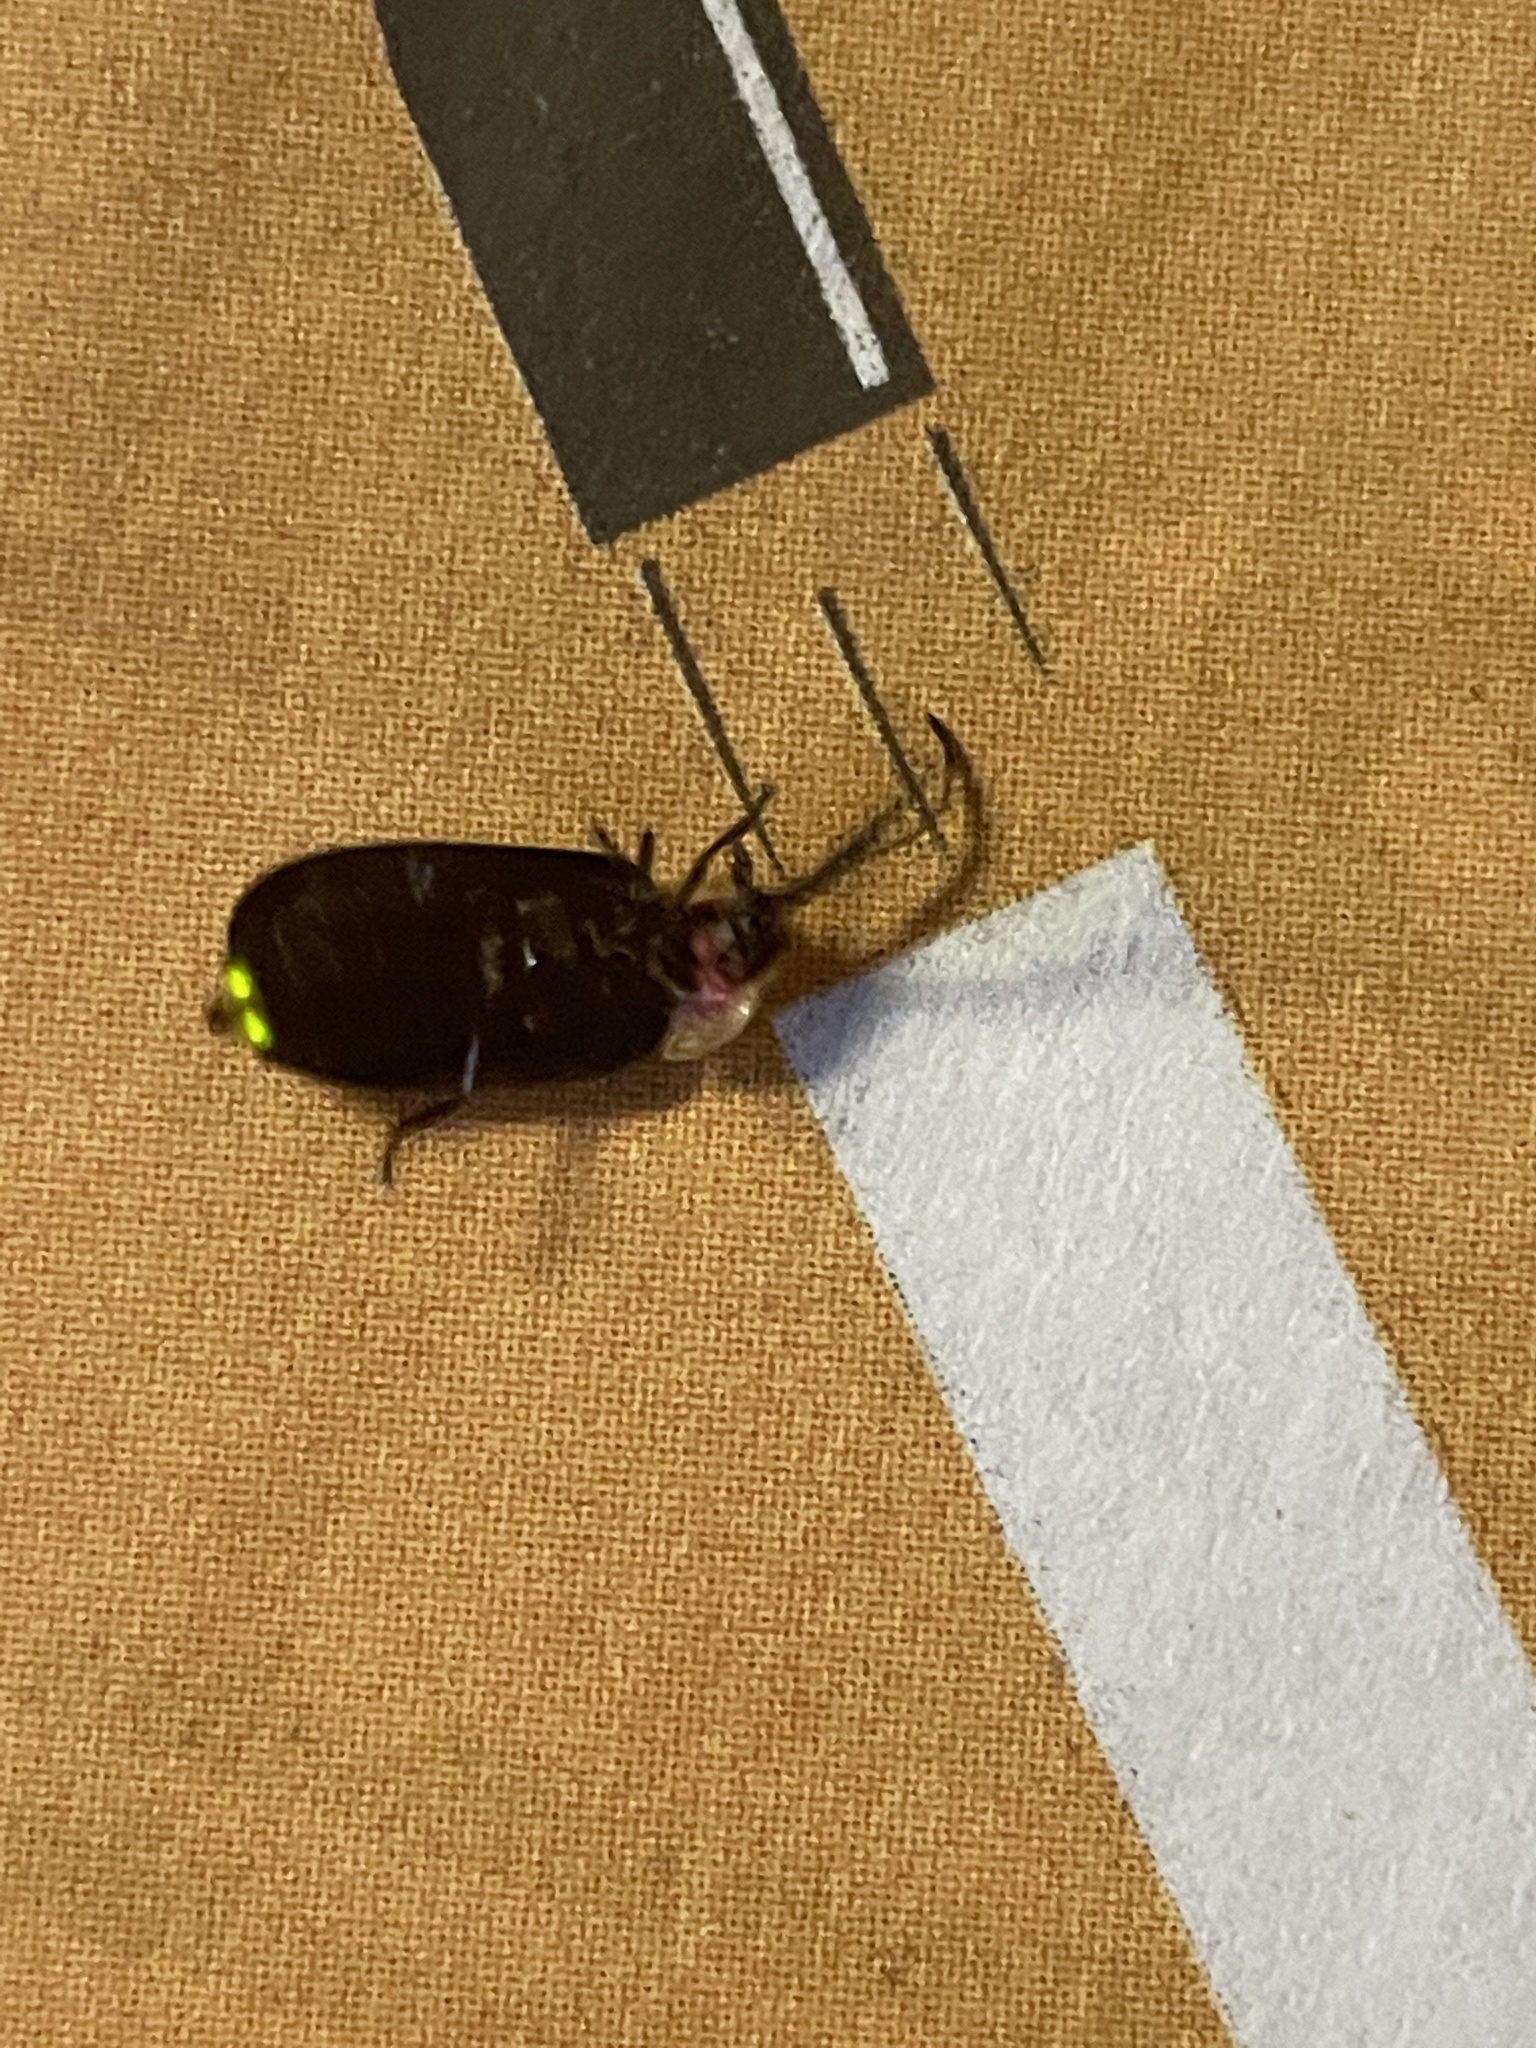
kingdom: Animalia
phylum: Arthropoda
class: Insecta
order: Coleoptera
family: Lampyridae
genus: Lucidota
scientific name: Lucidota atra
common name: Black firefly
